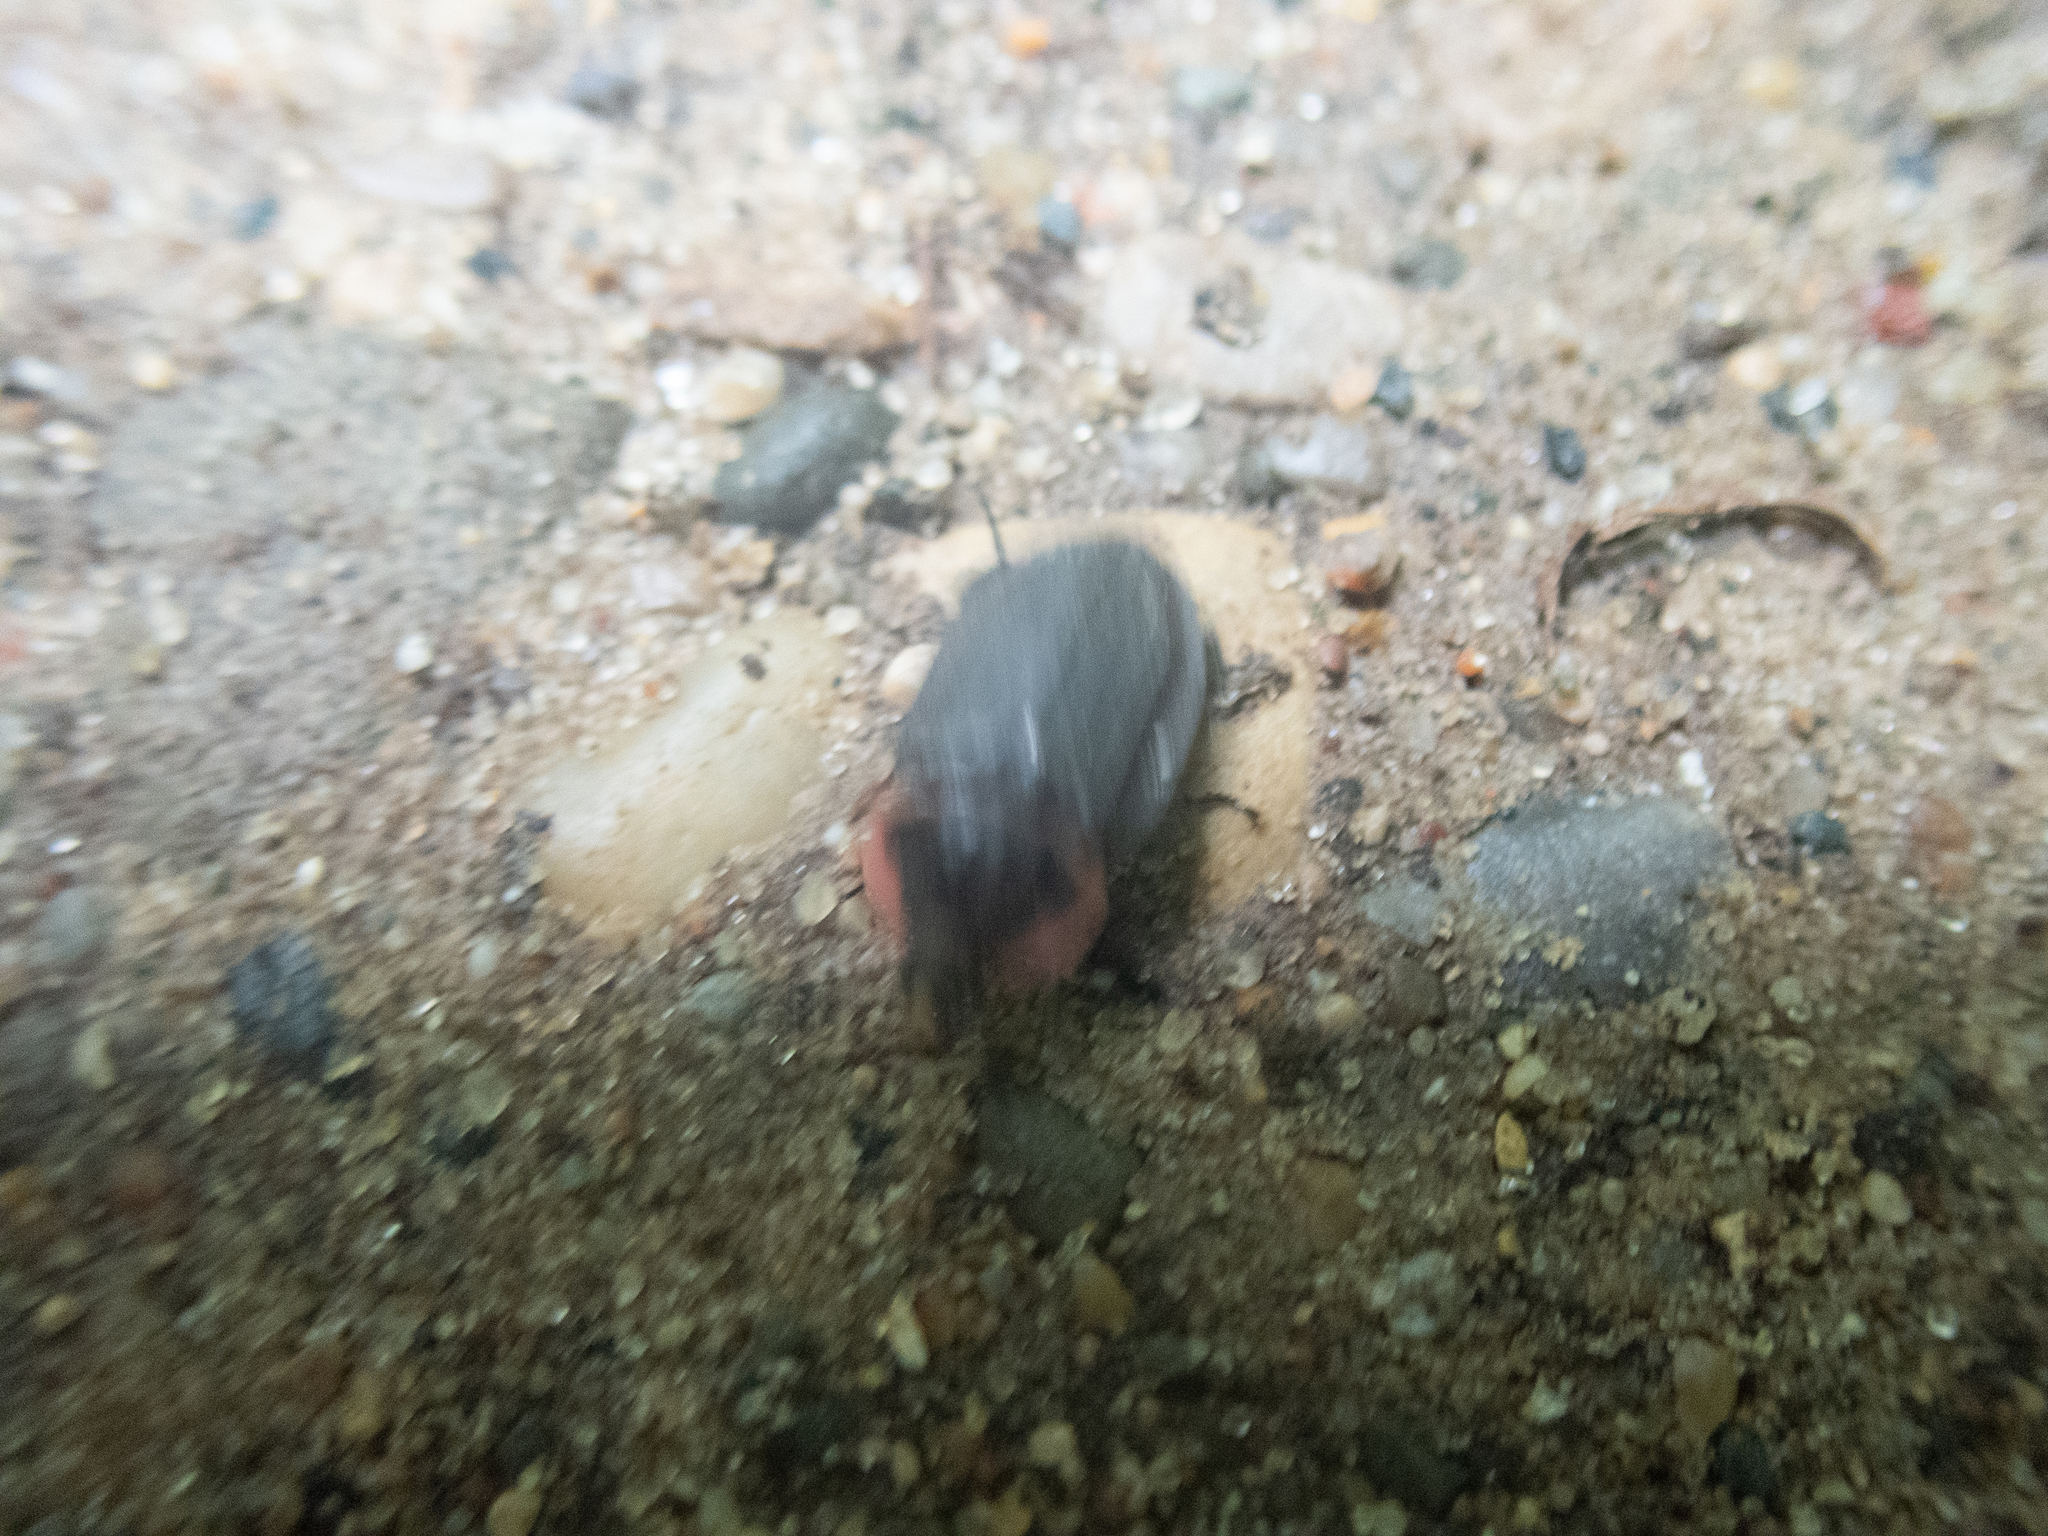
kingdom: Animalia
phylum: Arthropoda
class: Insecta
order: Coleoptera
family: Staphylinidae
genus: Oiceoptoma
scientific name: Oiceoptoma noveboracense
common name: Margined carrion beetle
